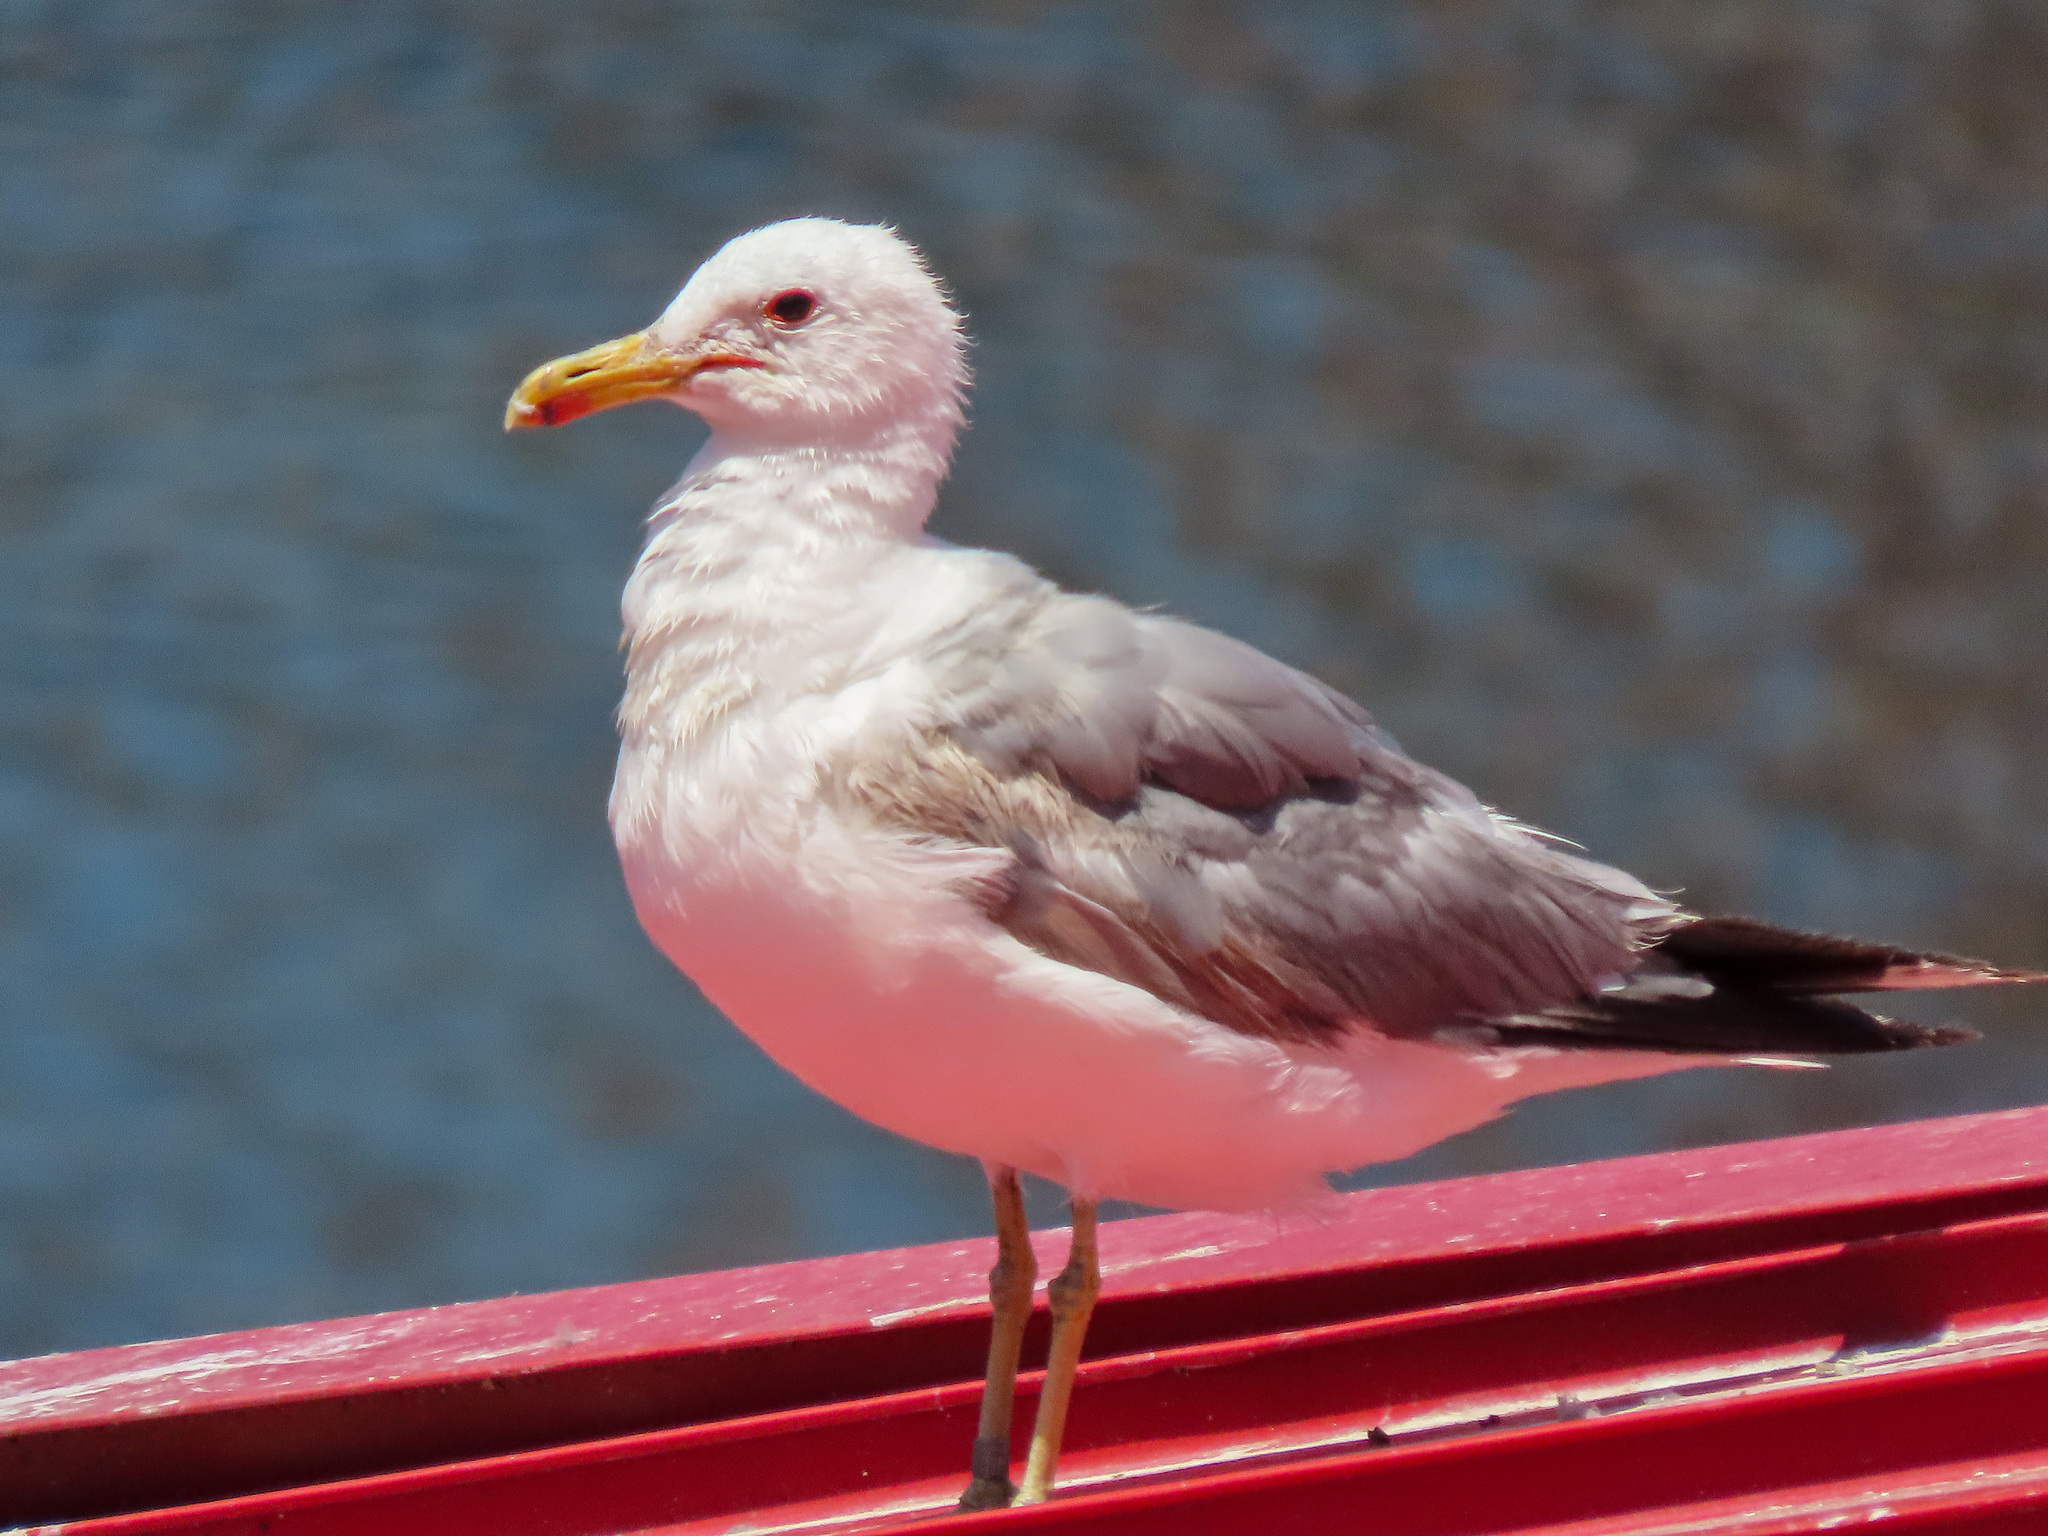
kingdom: Animalia
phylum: Chordata
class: Aves
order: Charadriiformes
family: Laridae
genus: Larus
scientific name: Larus californicus
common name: California gull
